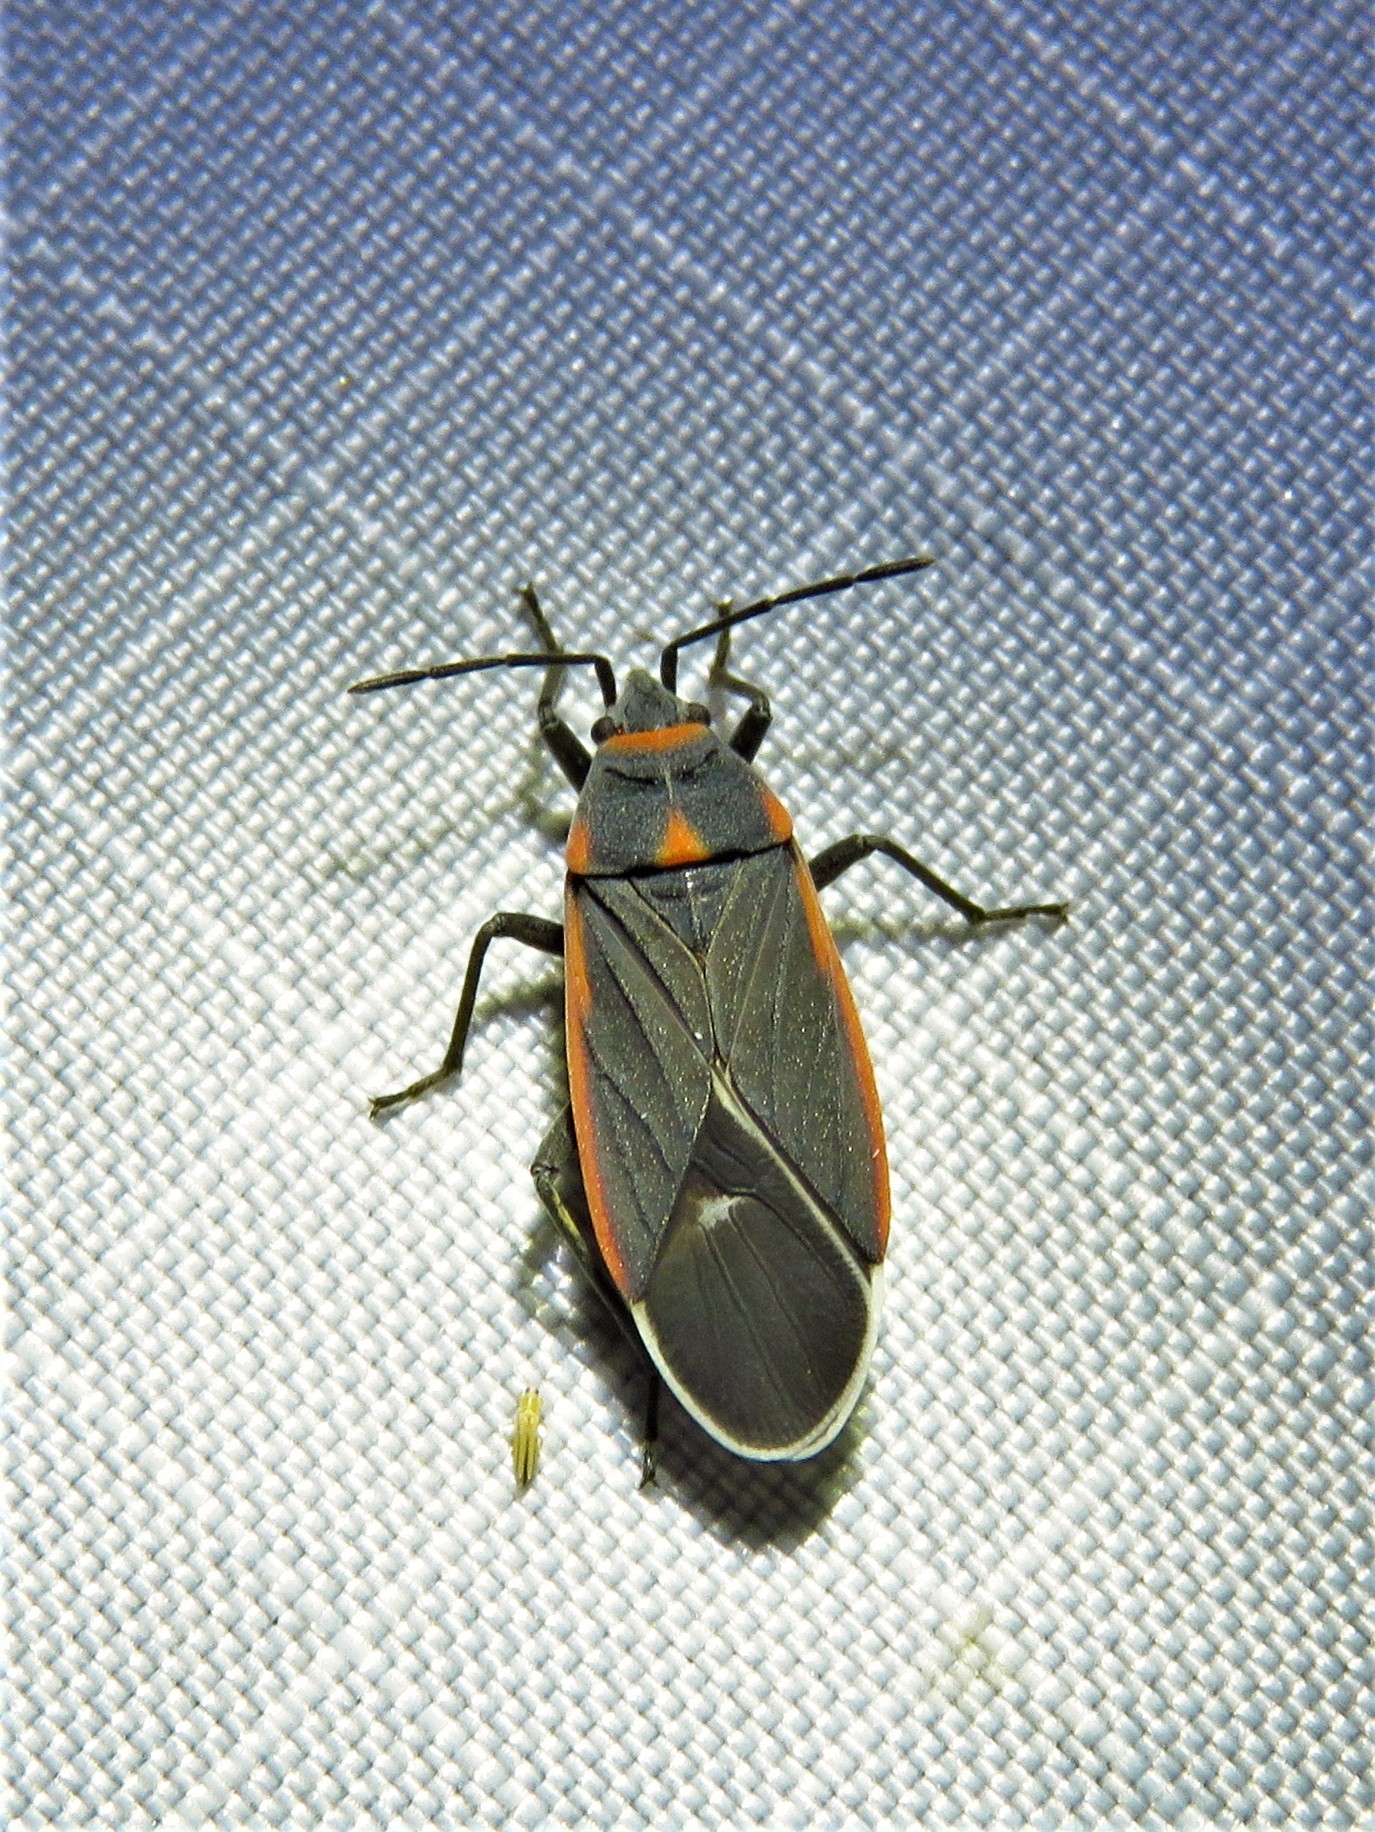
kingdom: Animalia
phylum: Arthropoda
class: Insecta
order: Hemiptera
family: Lygaeidae
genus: Melacoryphus
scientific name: Melacoryphus lateralis
